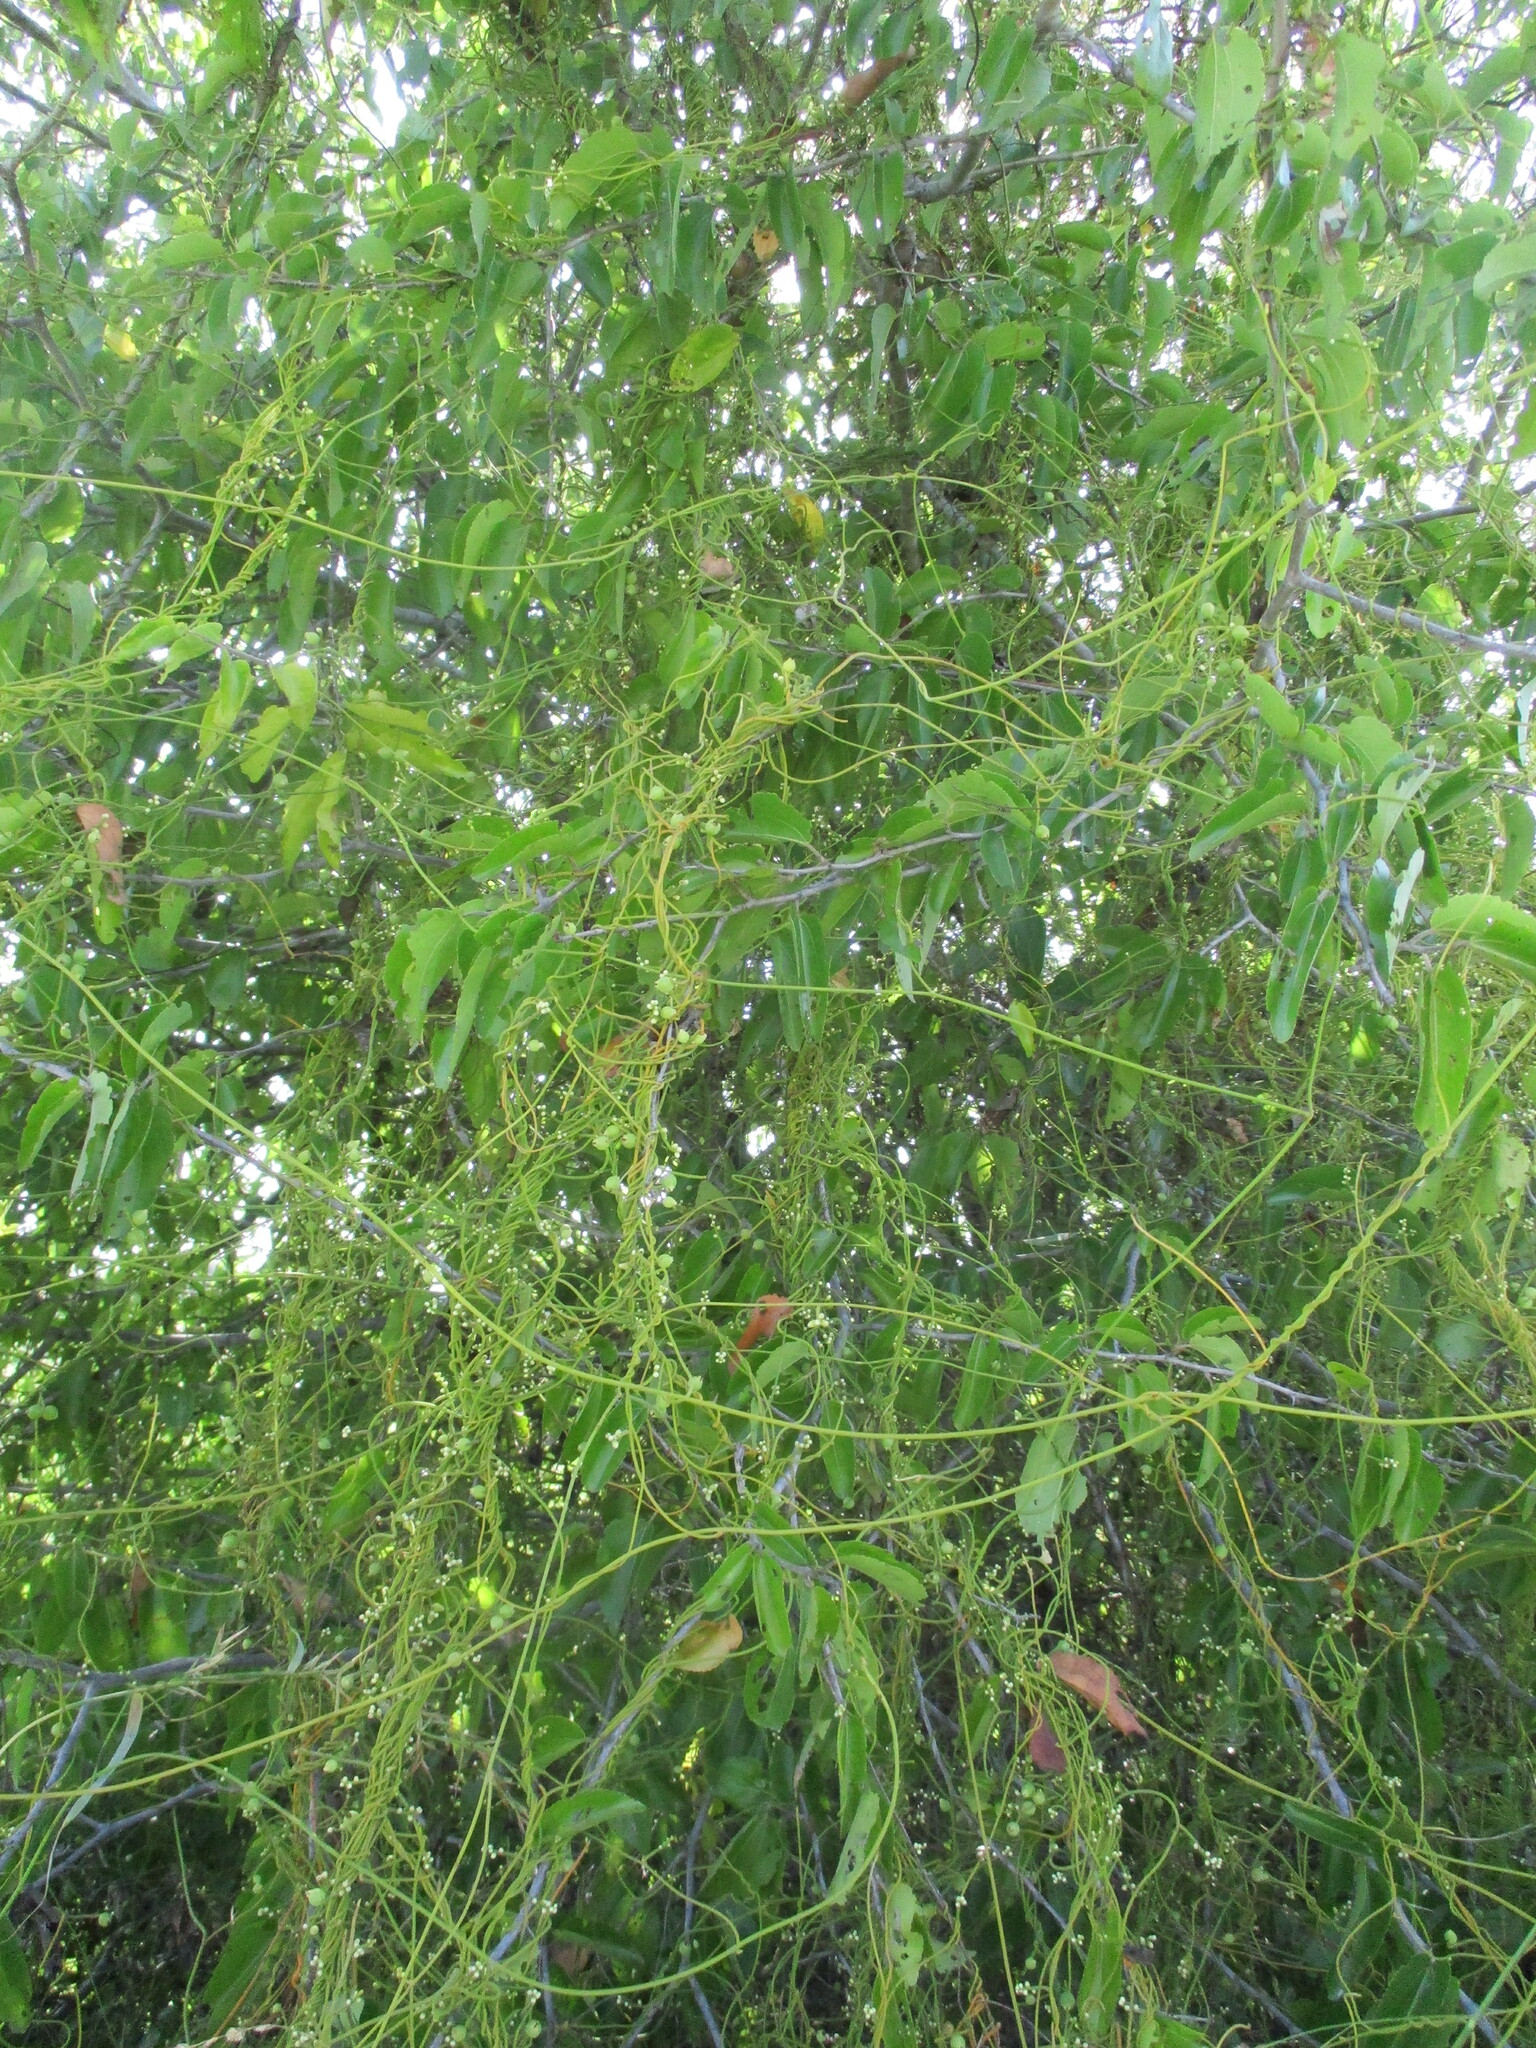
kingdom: Plantae
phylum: Tracheophyta
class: Magnoliopsida
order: Laurales
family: Lauraceae
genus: Cassytha
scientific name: Cassytha filiformis
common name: Dodder-laurel
